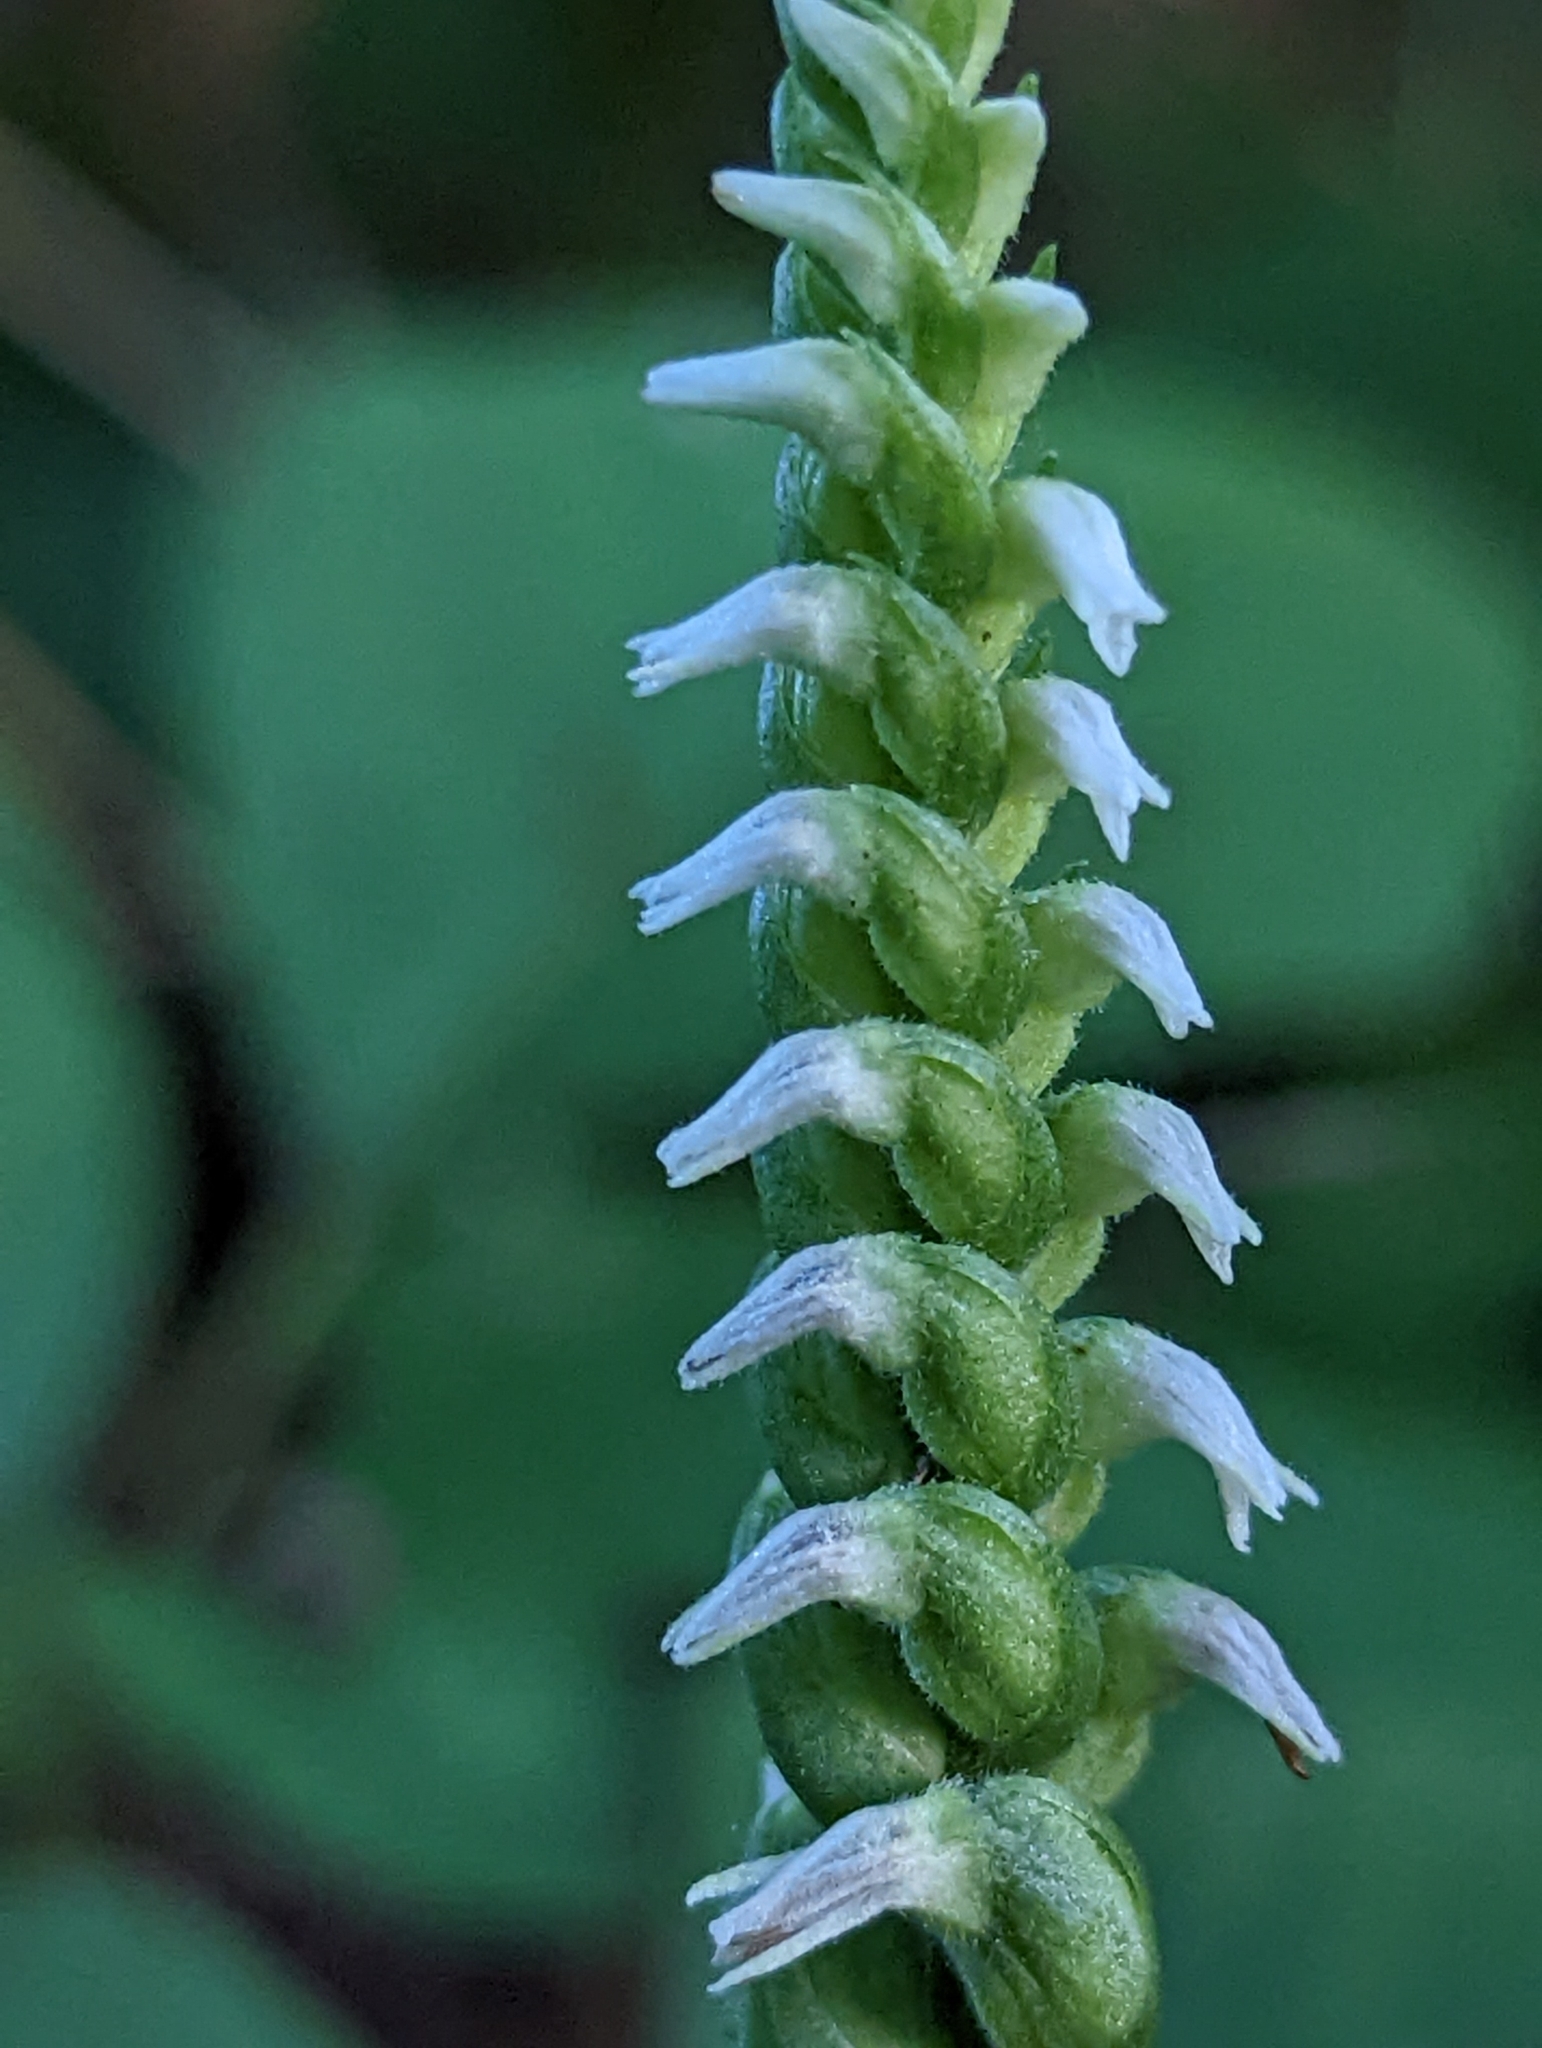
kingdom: Plantae
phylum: Tracheophyta
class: Liliopsida
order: Asparagales
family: Orchidaceae
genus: Spiranthes
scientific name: Spiranthes ovalis
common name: October ladies'-tresses
